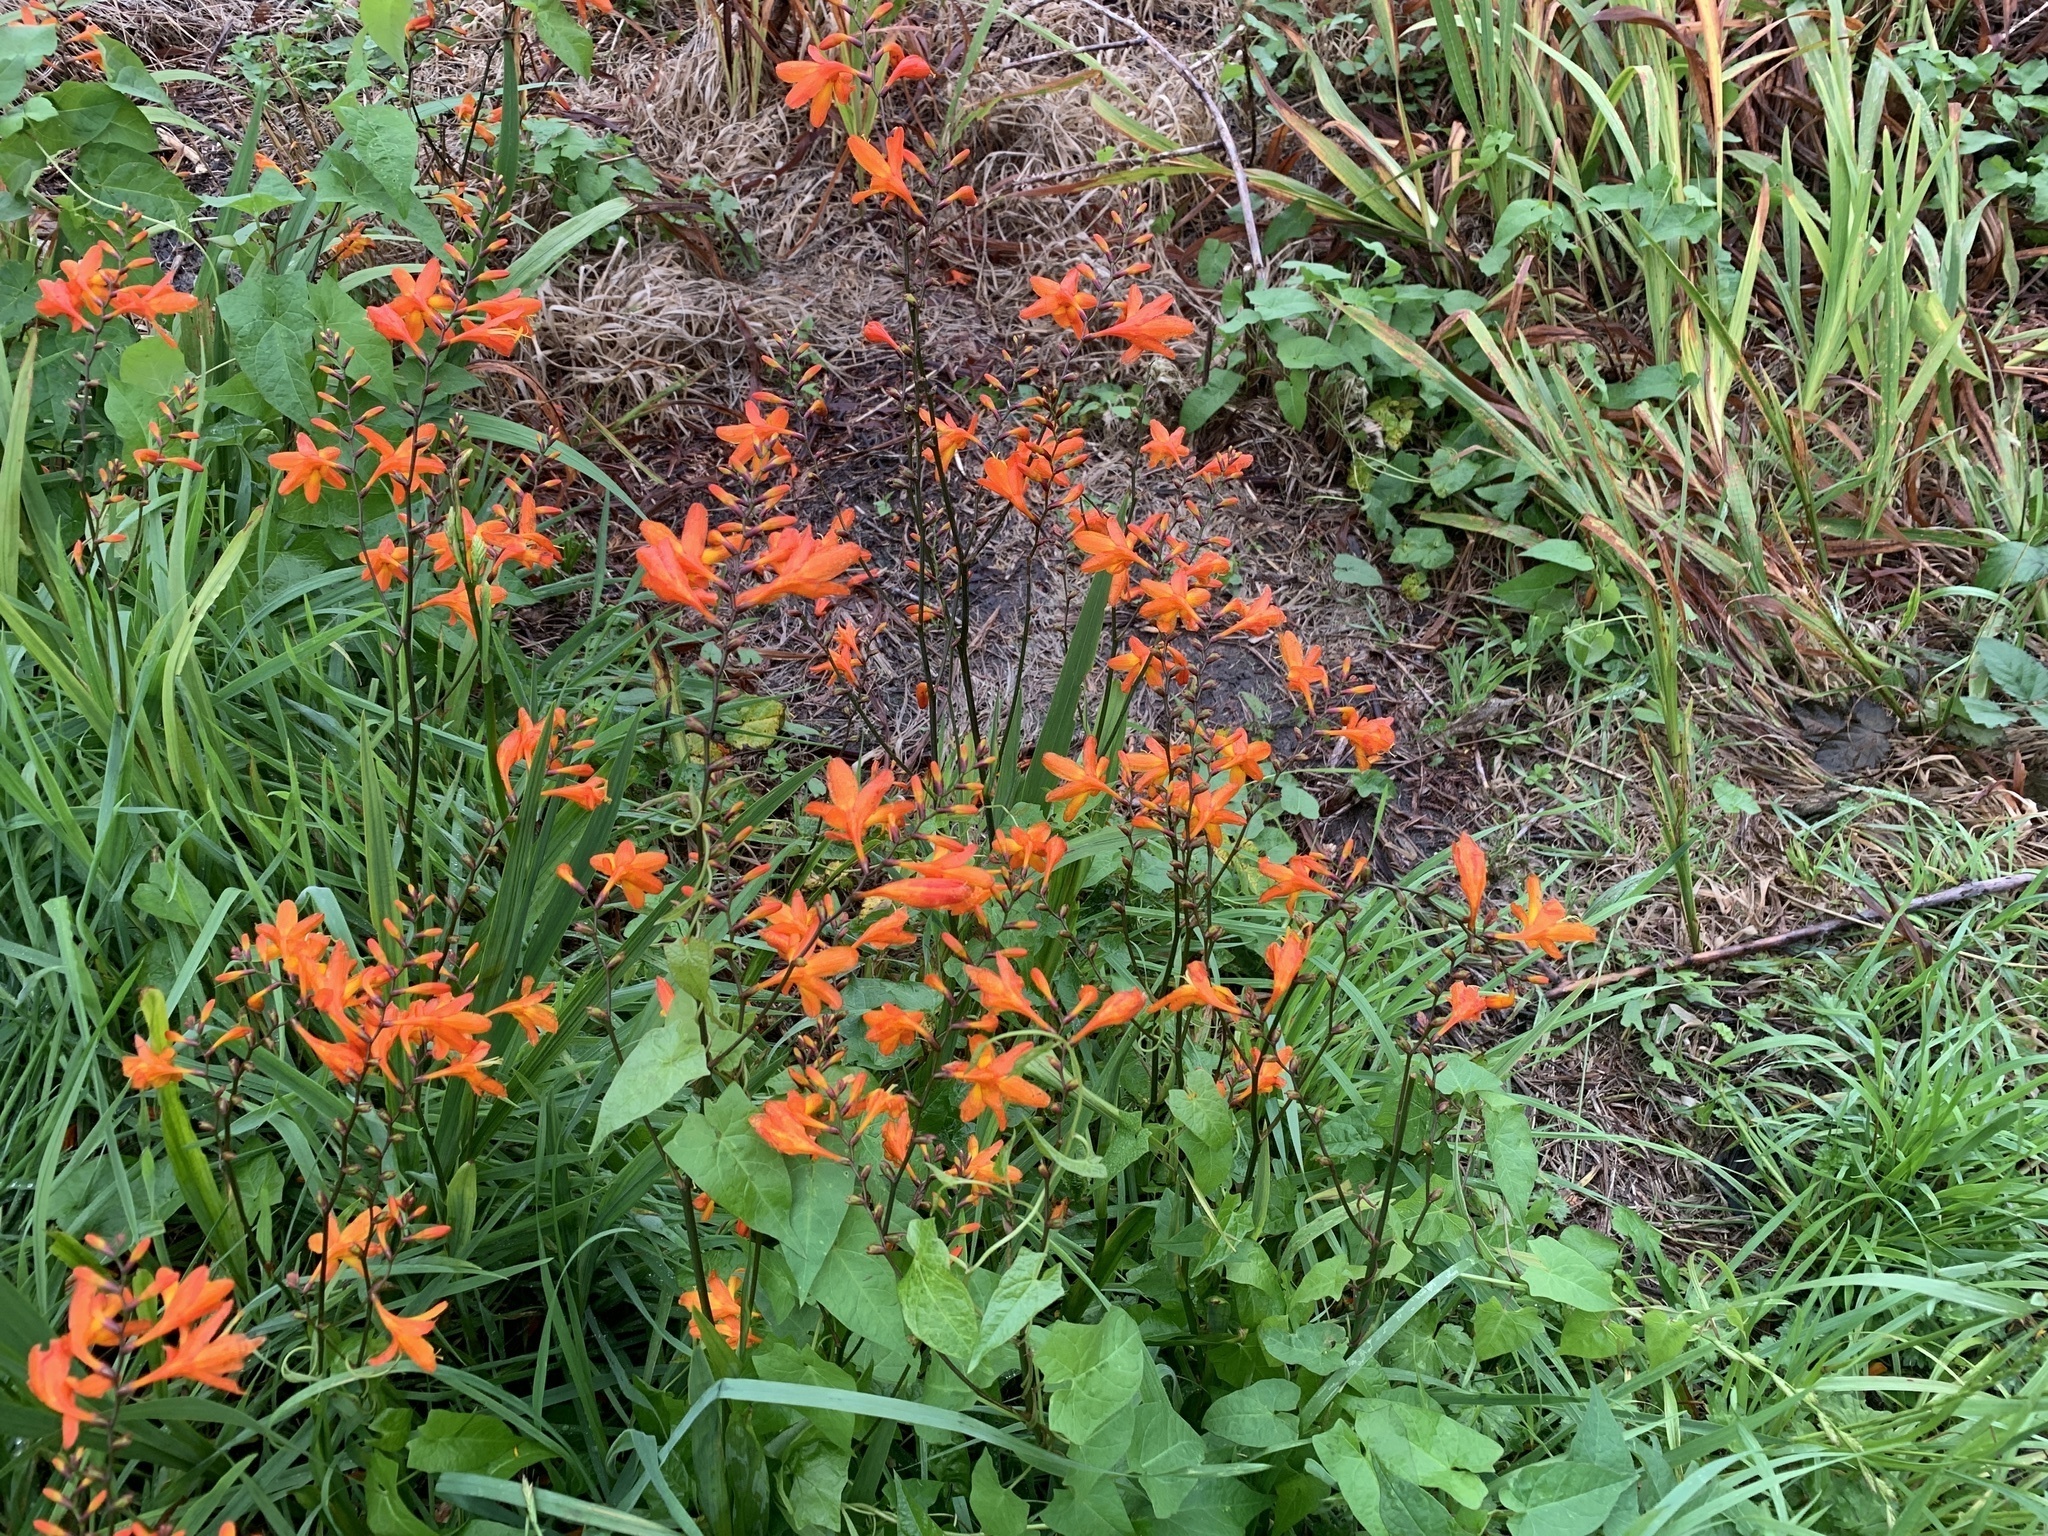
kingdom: Plantae
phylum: Tracheophyta
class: Liliopsida
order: Asparagales
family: Iridaceae
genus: Crocosmia
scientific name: Crocosmia crocosmiiflora
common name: Montbretia
